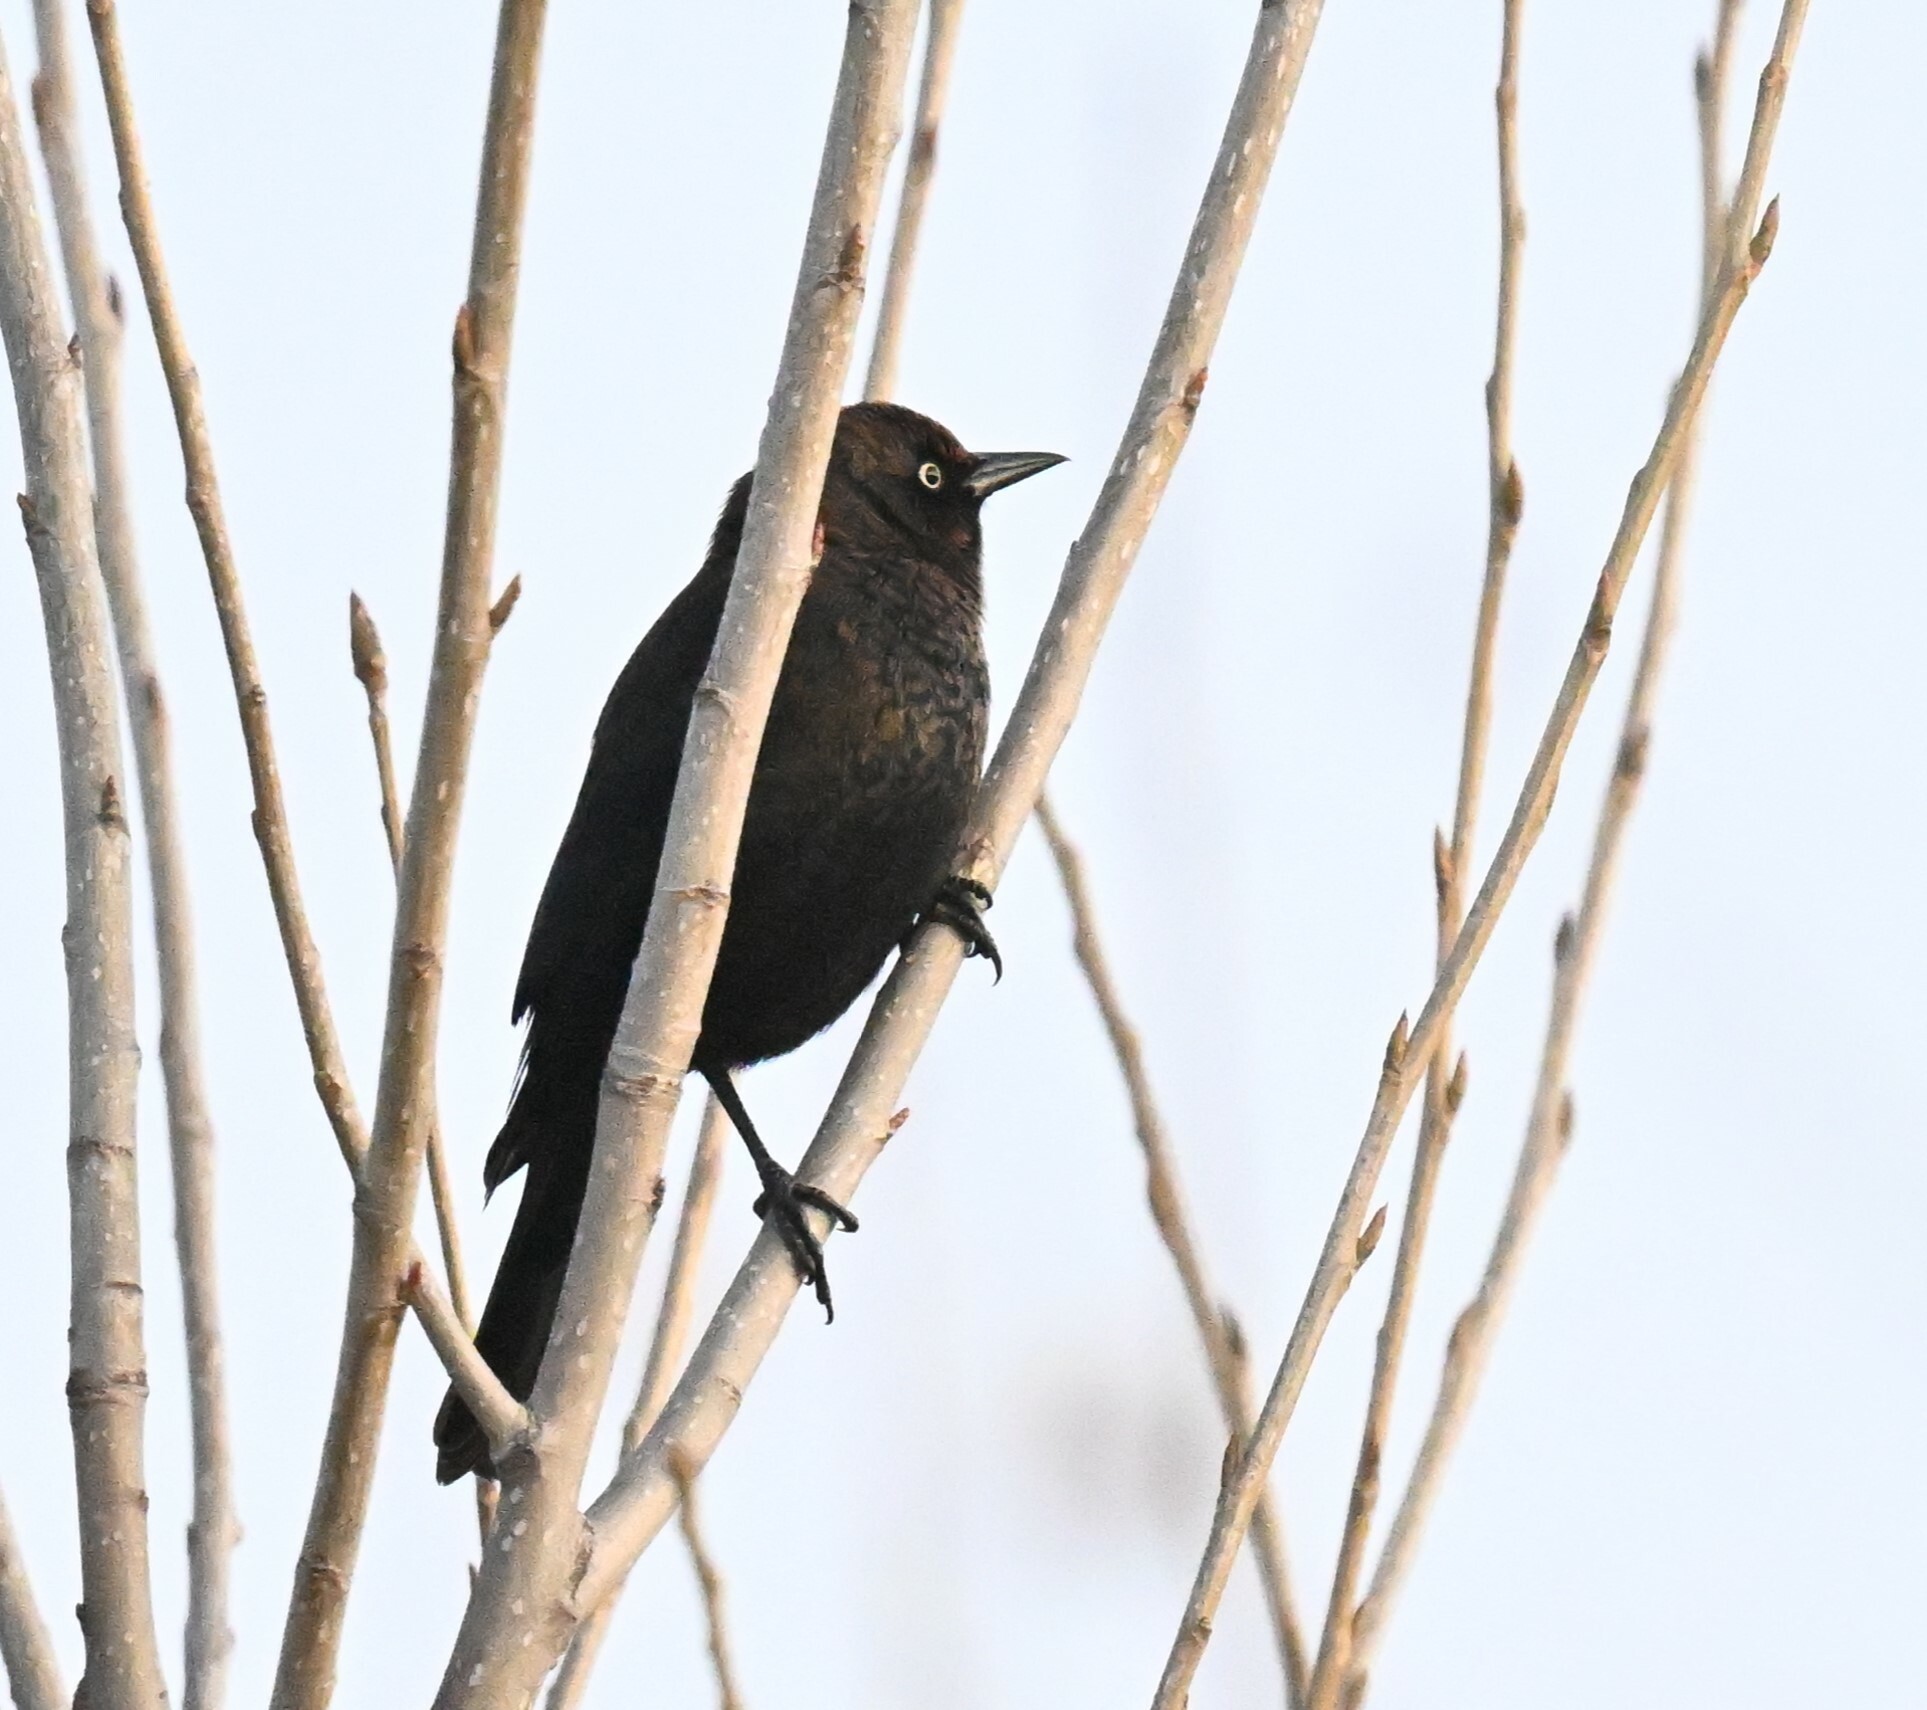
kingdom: Animalia
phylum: Chordata
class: Aves
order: Passeriformes
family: Icteridae
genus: Euphagus
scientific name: Euphagus carolinus
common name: Rusty blackbird
